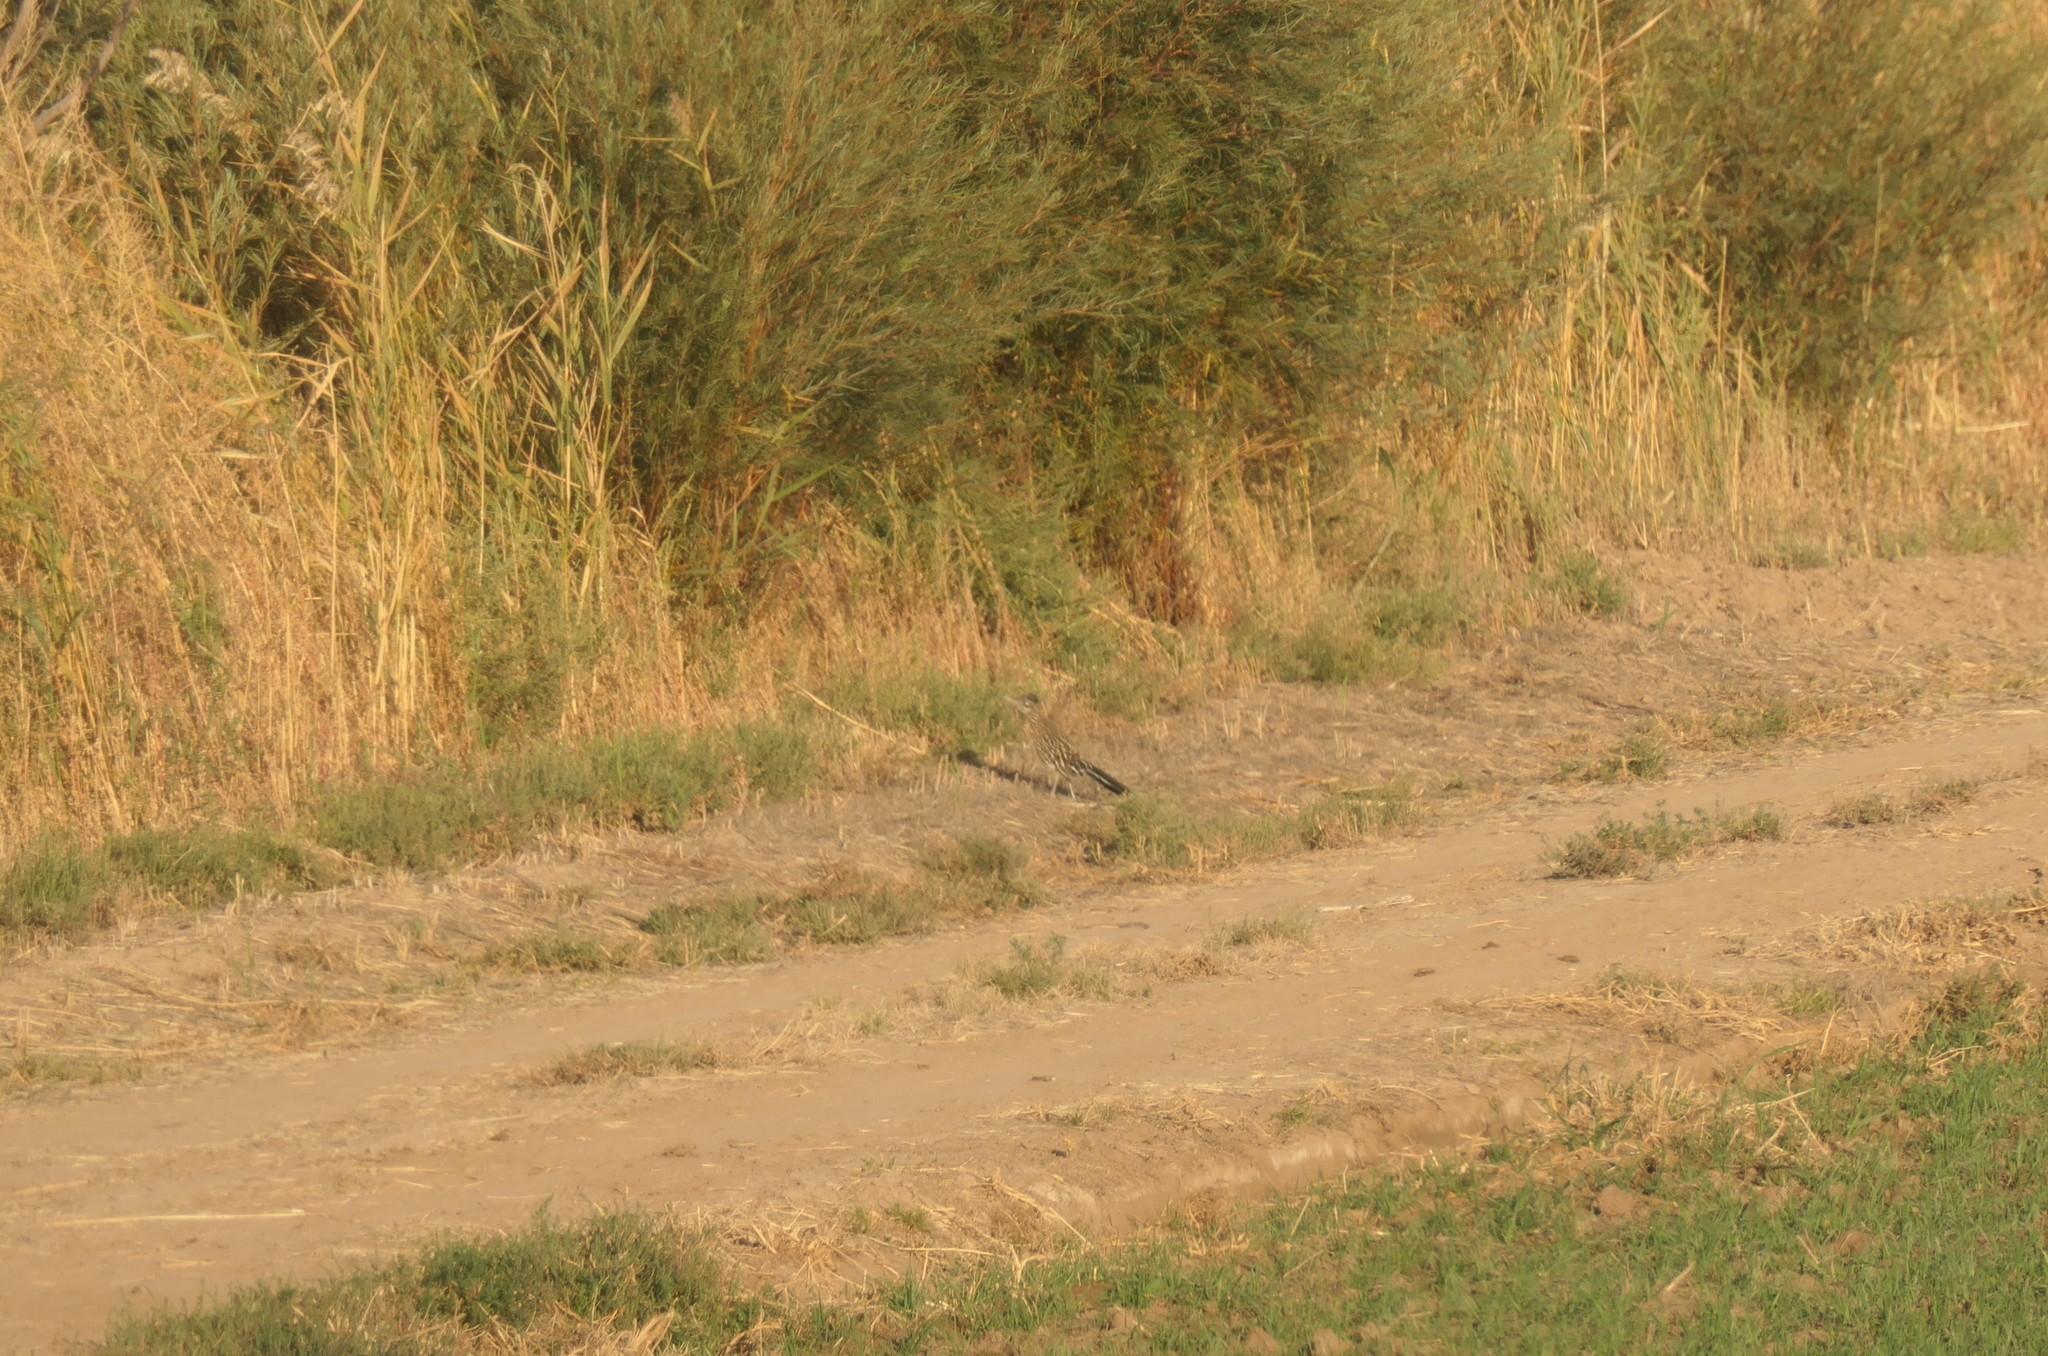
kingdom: Animalia
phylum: Chordata
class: Aves
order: Cuculiformes
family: Cuculidae
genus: Geococcyx
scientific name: Geococcyx californianus
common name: Greater roadrunner
